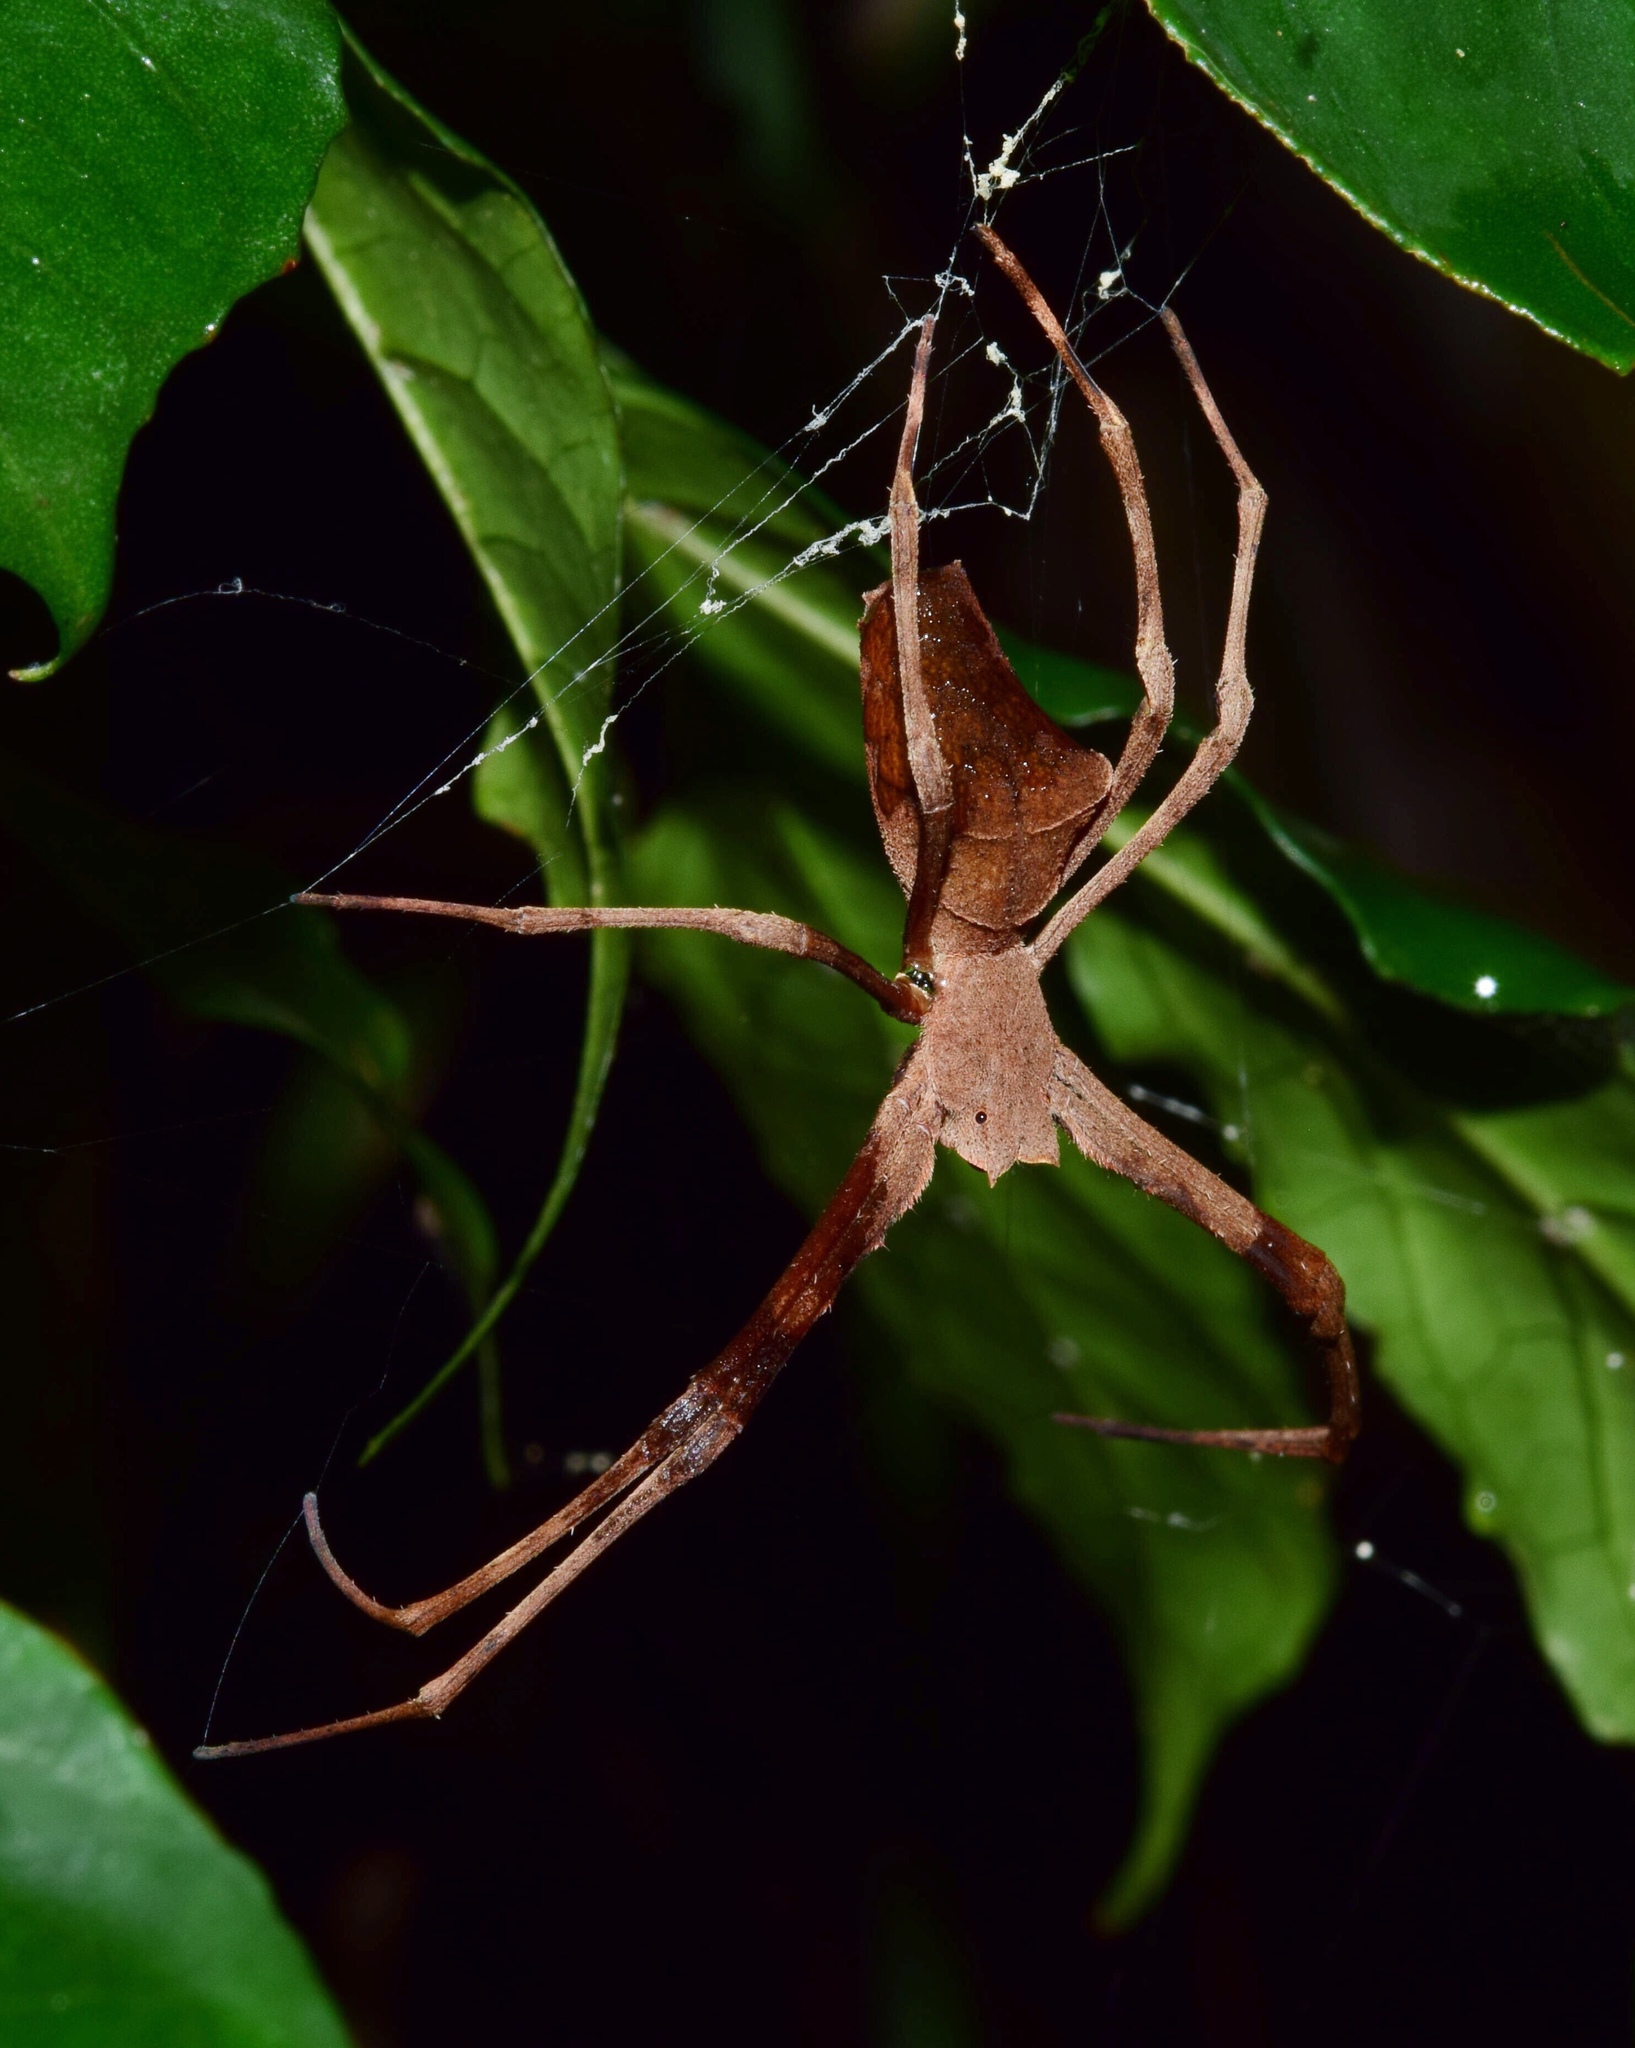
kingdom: Animalia
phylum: Arthropoda
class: Arachnida
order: Araneae
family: Deinopidae
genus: Deinopis
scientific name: Deinopis anchietae
